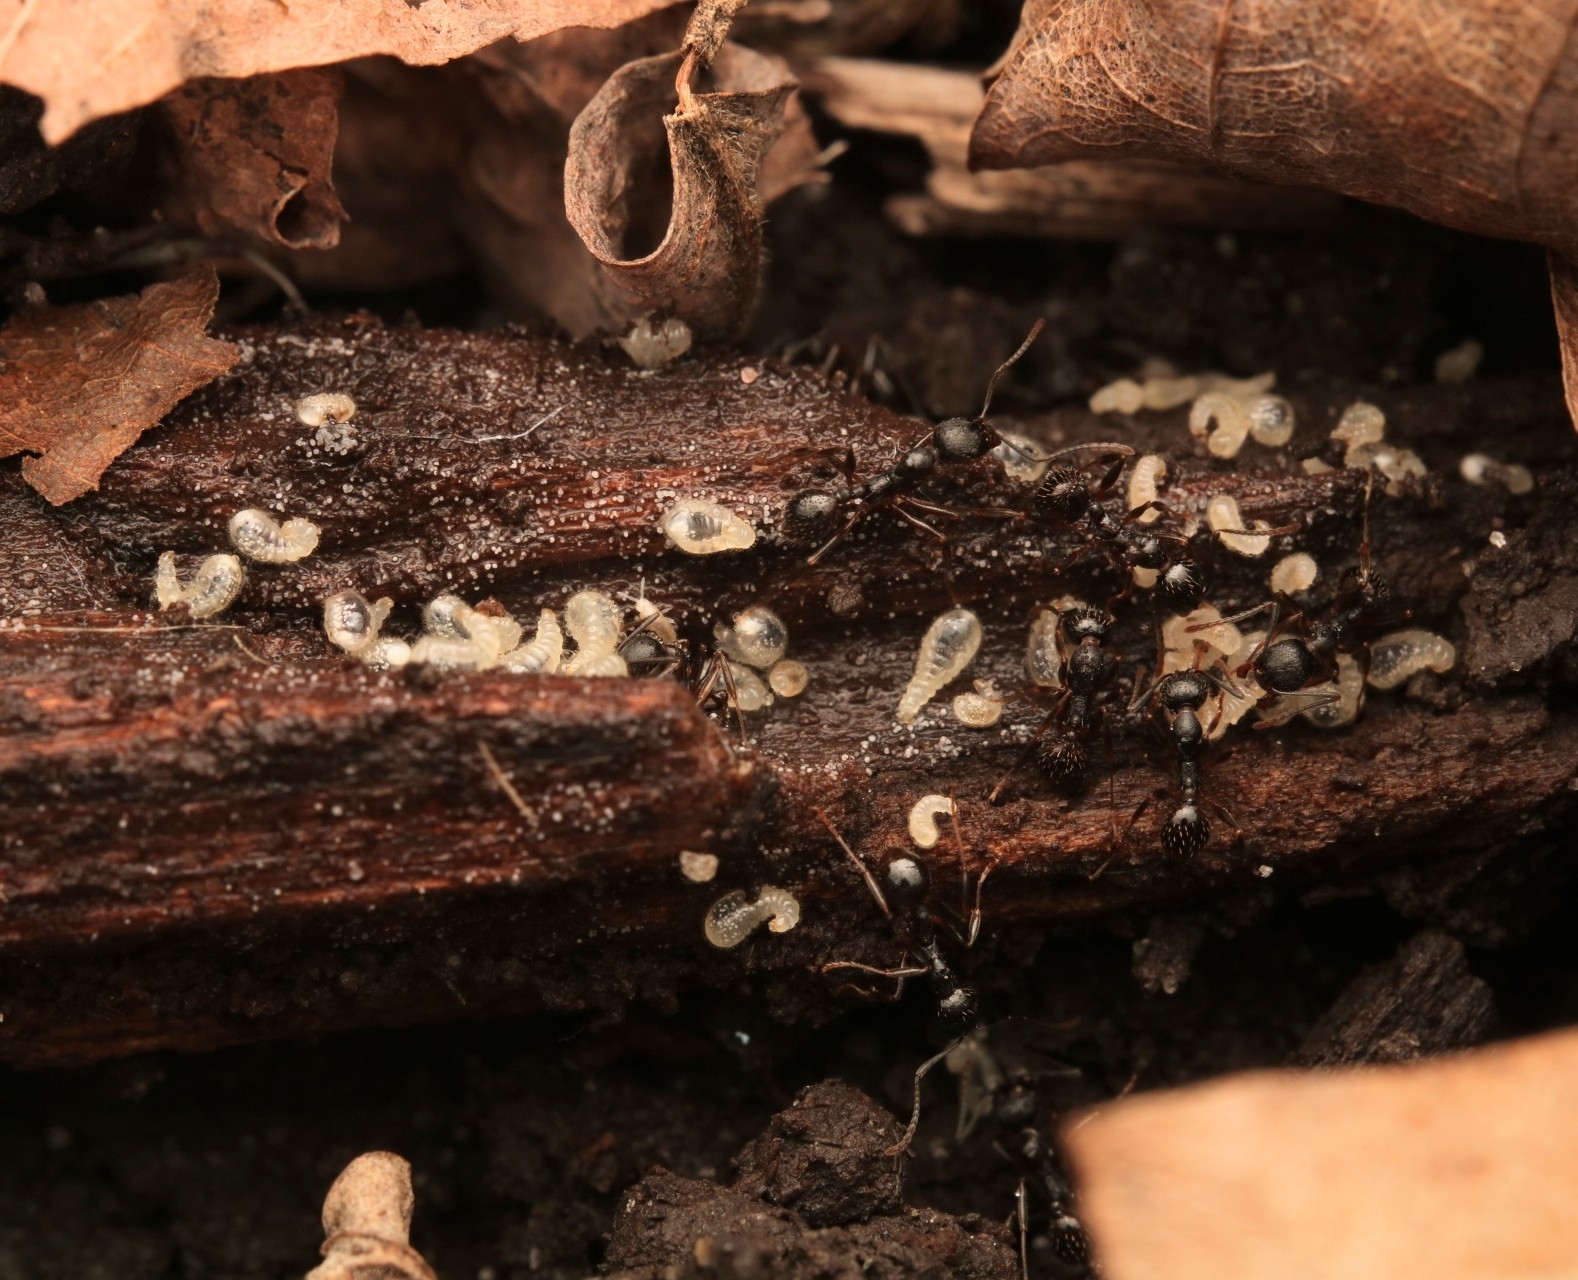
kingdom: Animalia
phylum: Arthropoda
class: Insecta
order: Hymenoptera
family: Formicidae
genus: Aphaenogaster
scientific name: Aphaenogaster picea
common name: Pitch-black collared ant
